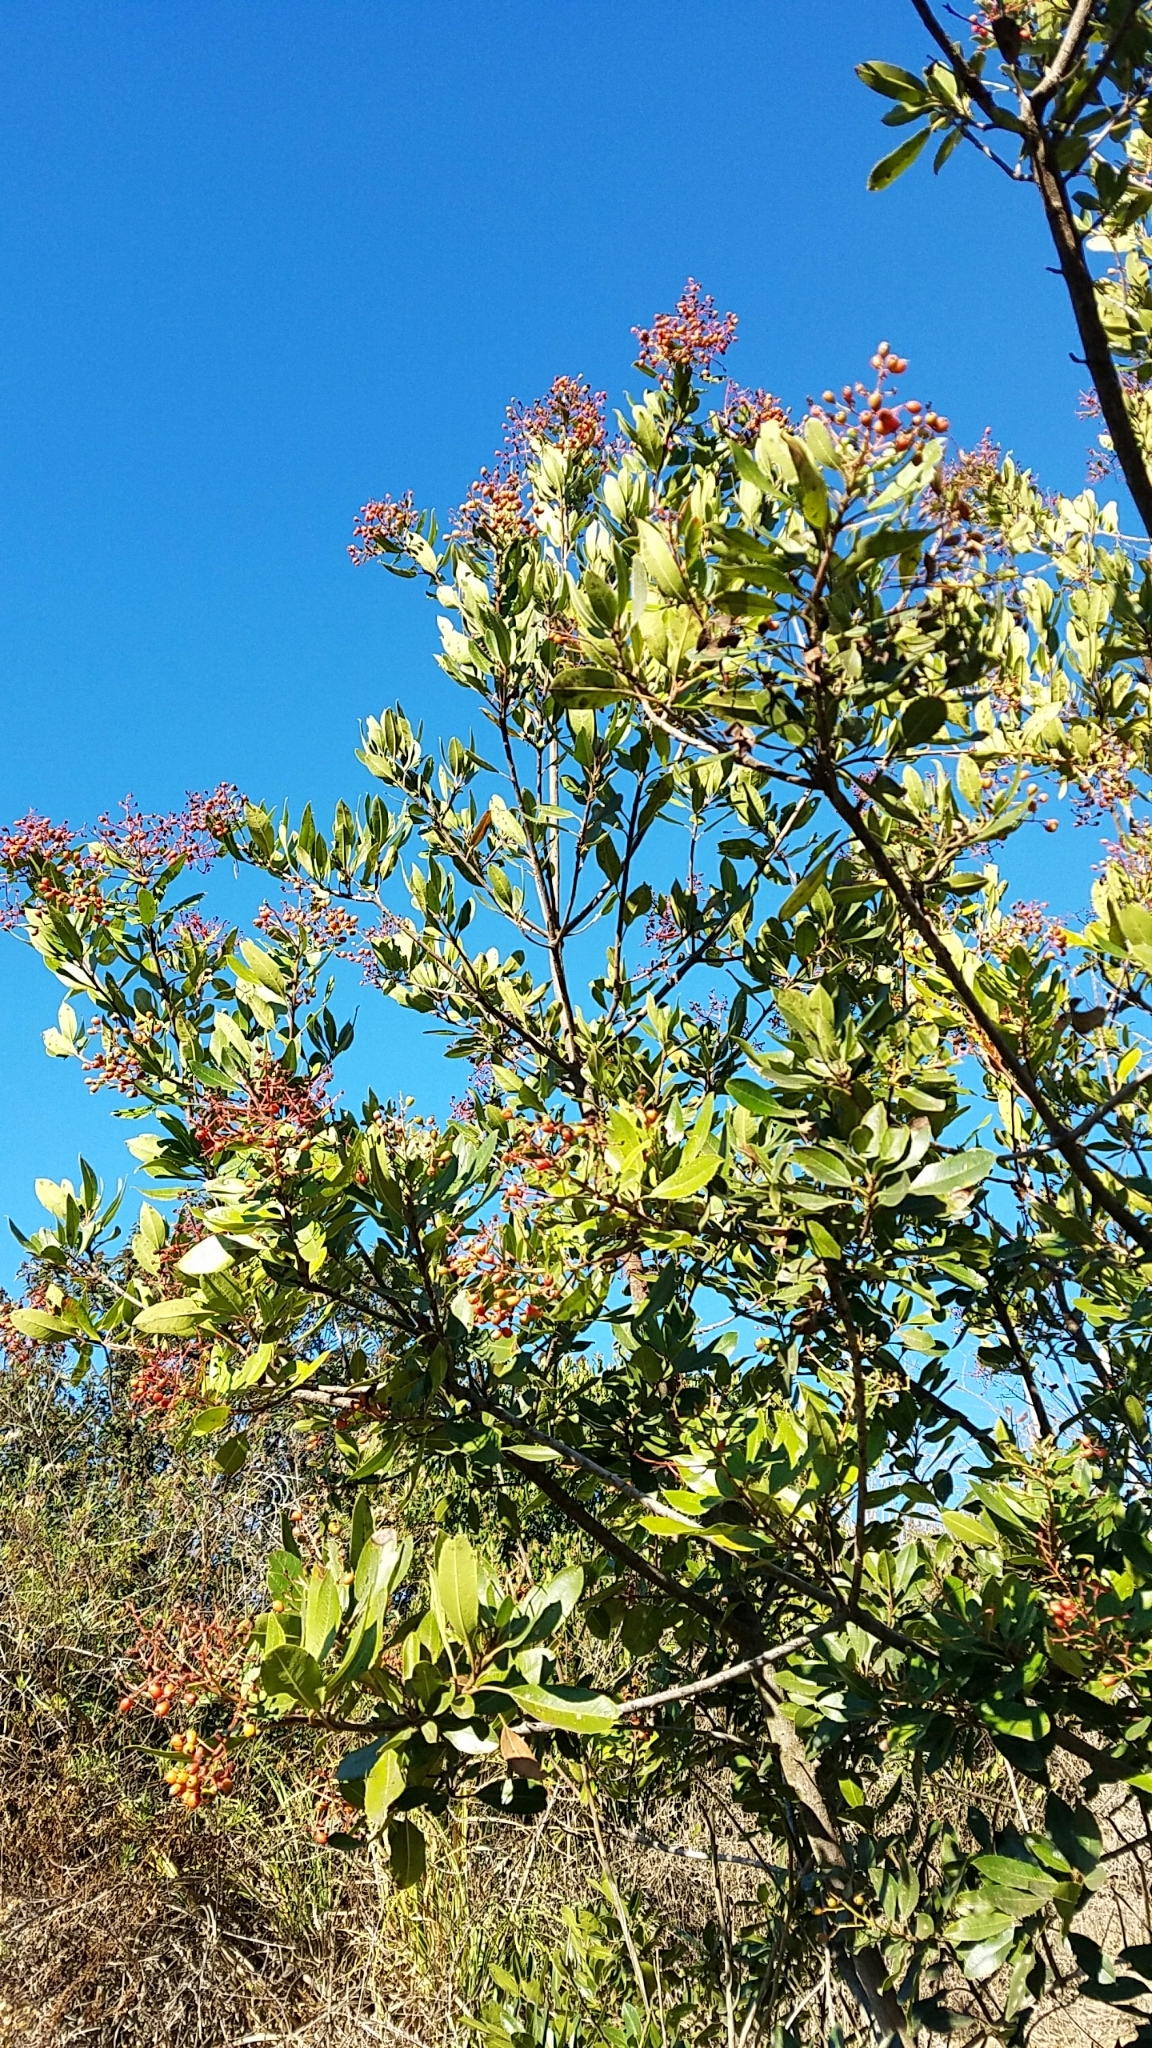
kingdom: Plantae
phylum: Tracheophyta
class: Magnoliopsida
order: Rosales
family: Rosaceae
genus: Heteromeles
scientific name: Heteromeles arbutifolia
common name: California-holly
